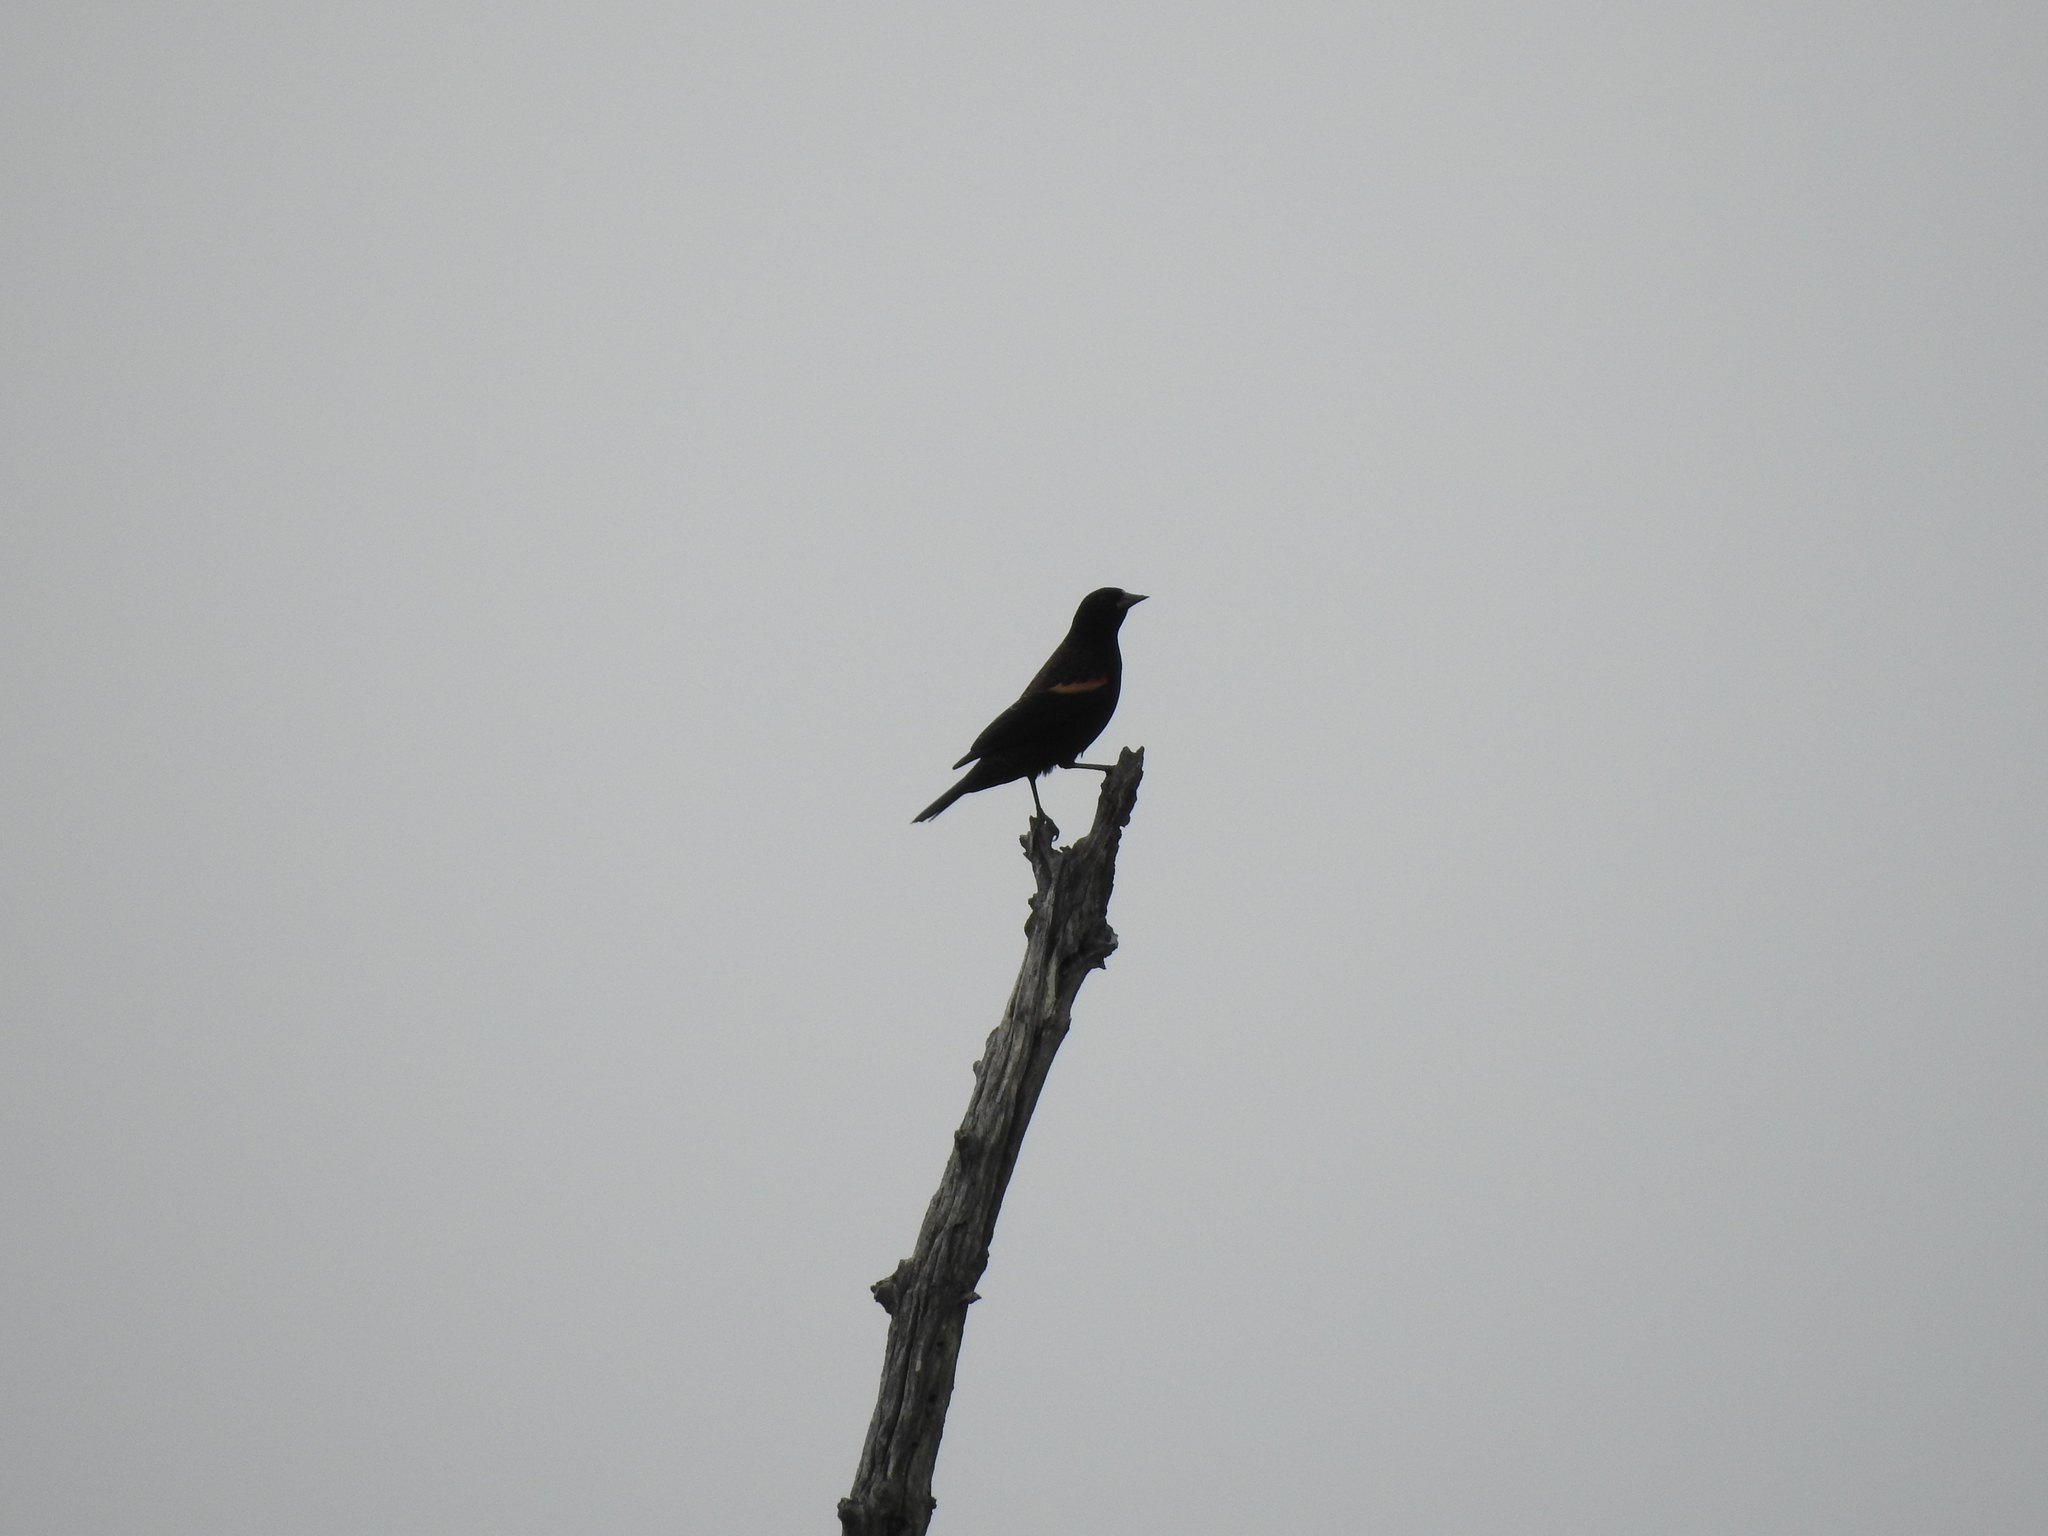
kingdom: Animalia
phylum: Chordata
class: Aves
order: Passeriformes
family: Icteridae
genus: Agelaius
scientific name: Agelaius phoeniceus
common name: Red-winged blackbird
